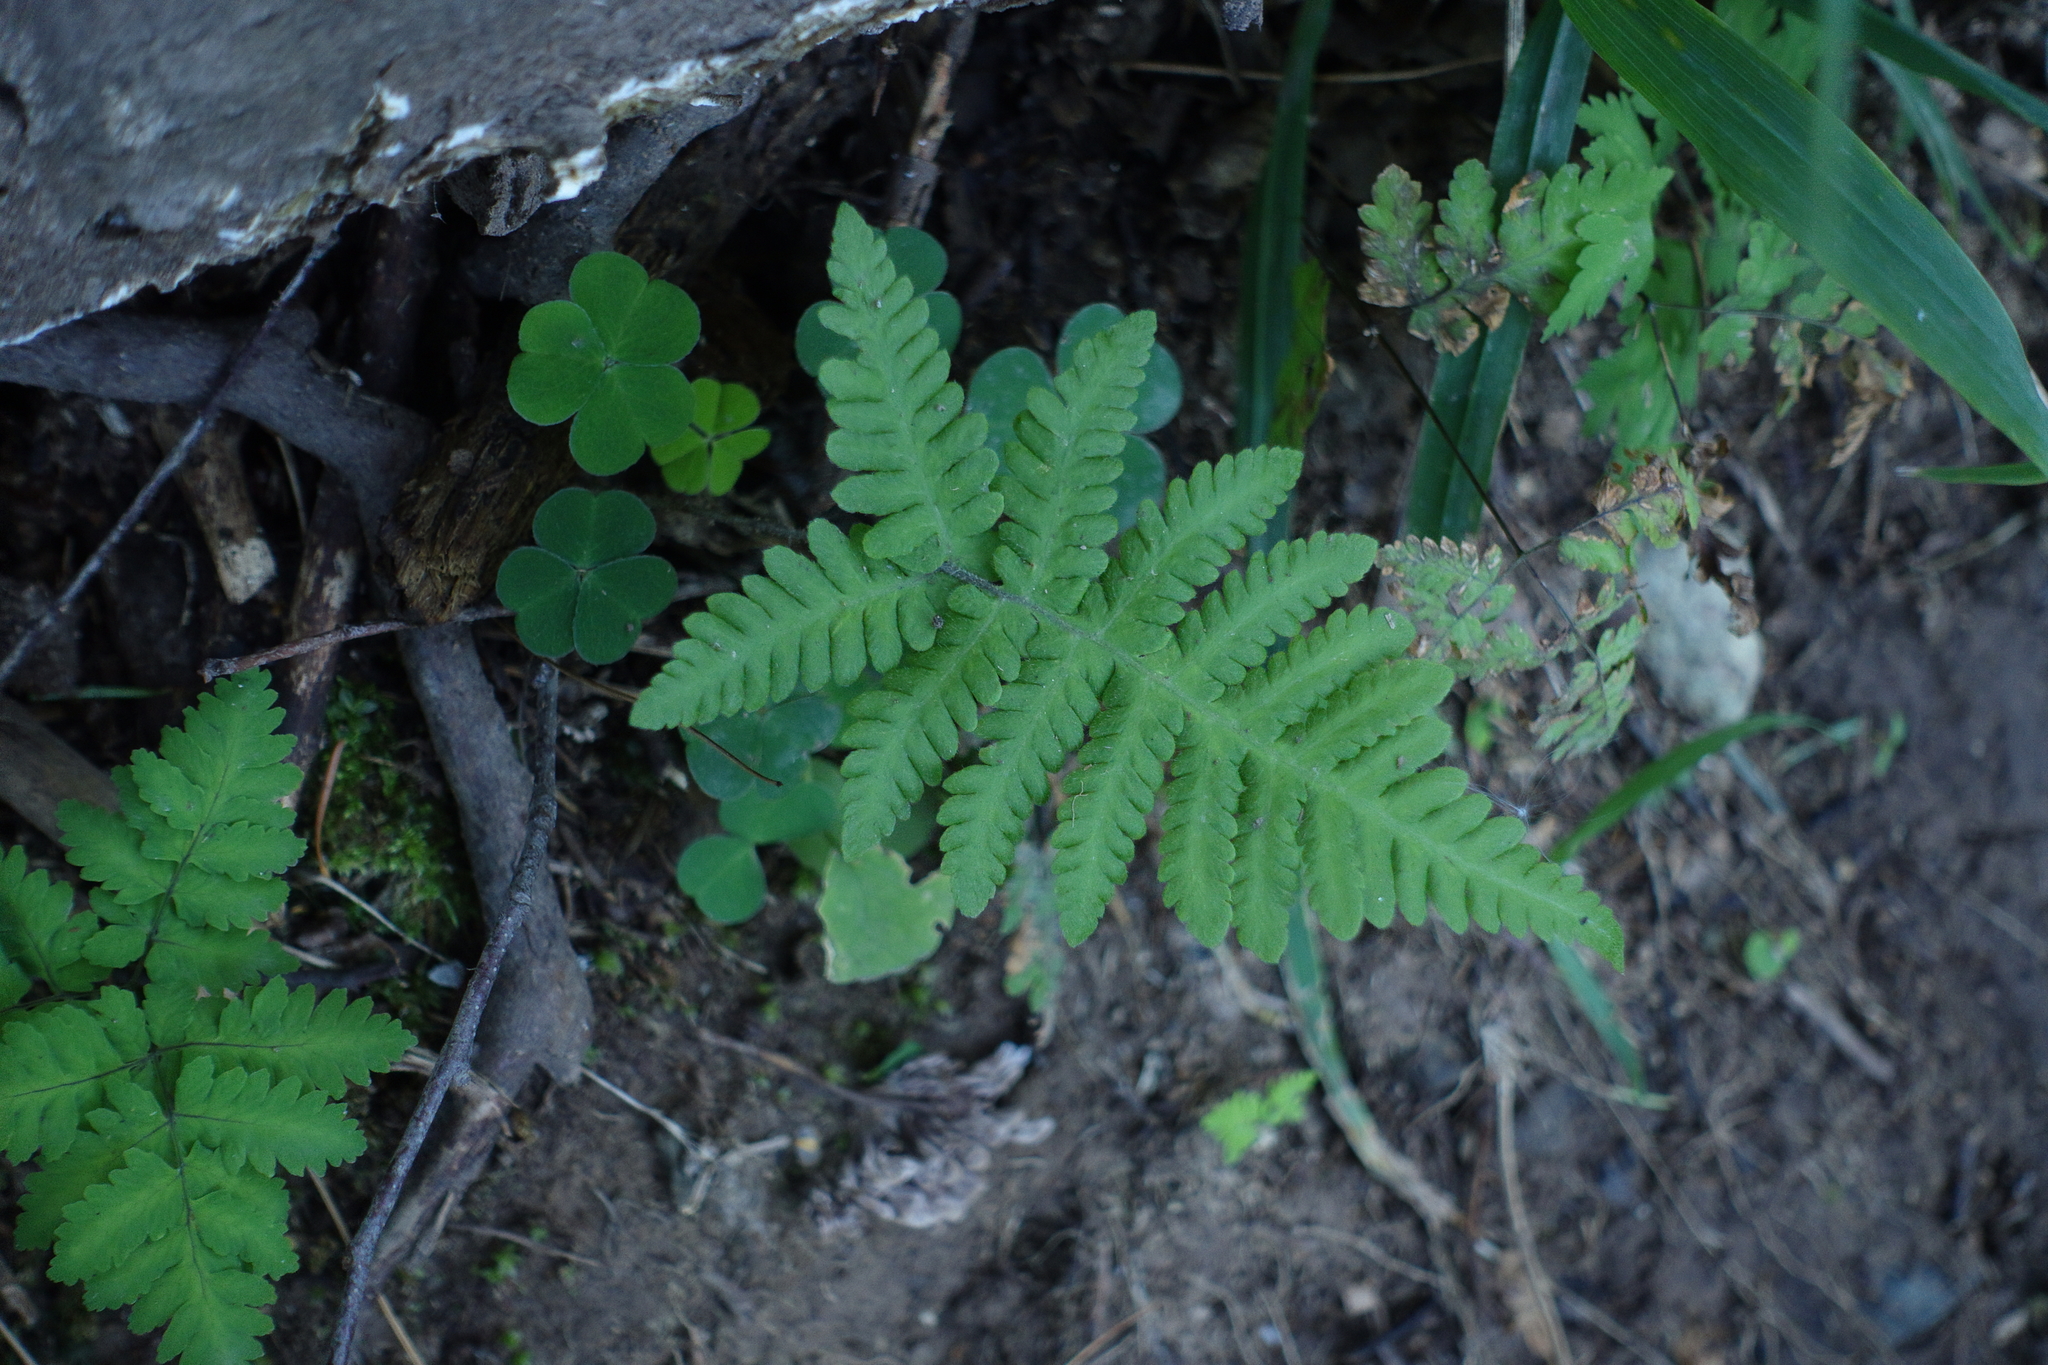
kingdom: Plantae
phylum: Tracheophyta
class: Polypodiopsida
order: Polypodiales
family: Thelypteridaceae
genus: Phegopteris
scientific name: Phegopteris connectilis
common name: Beech fern
